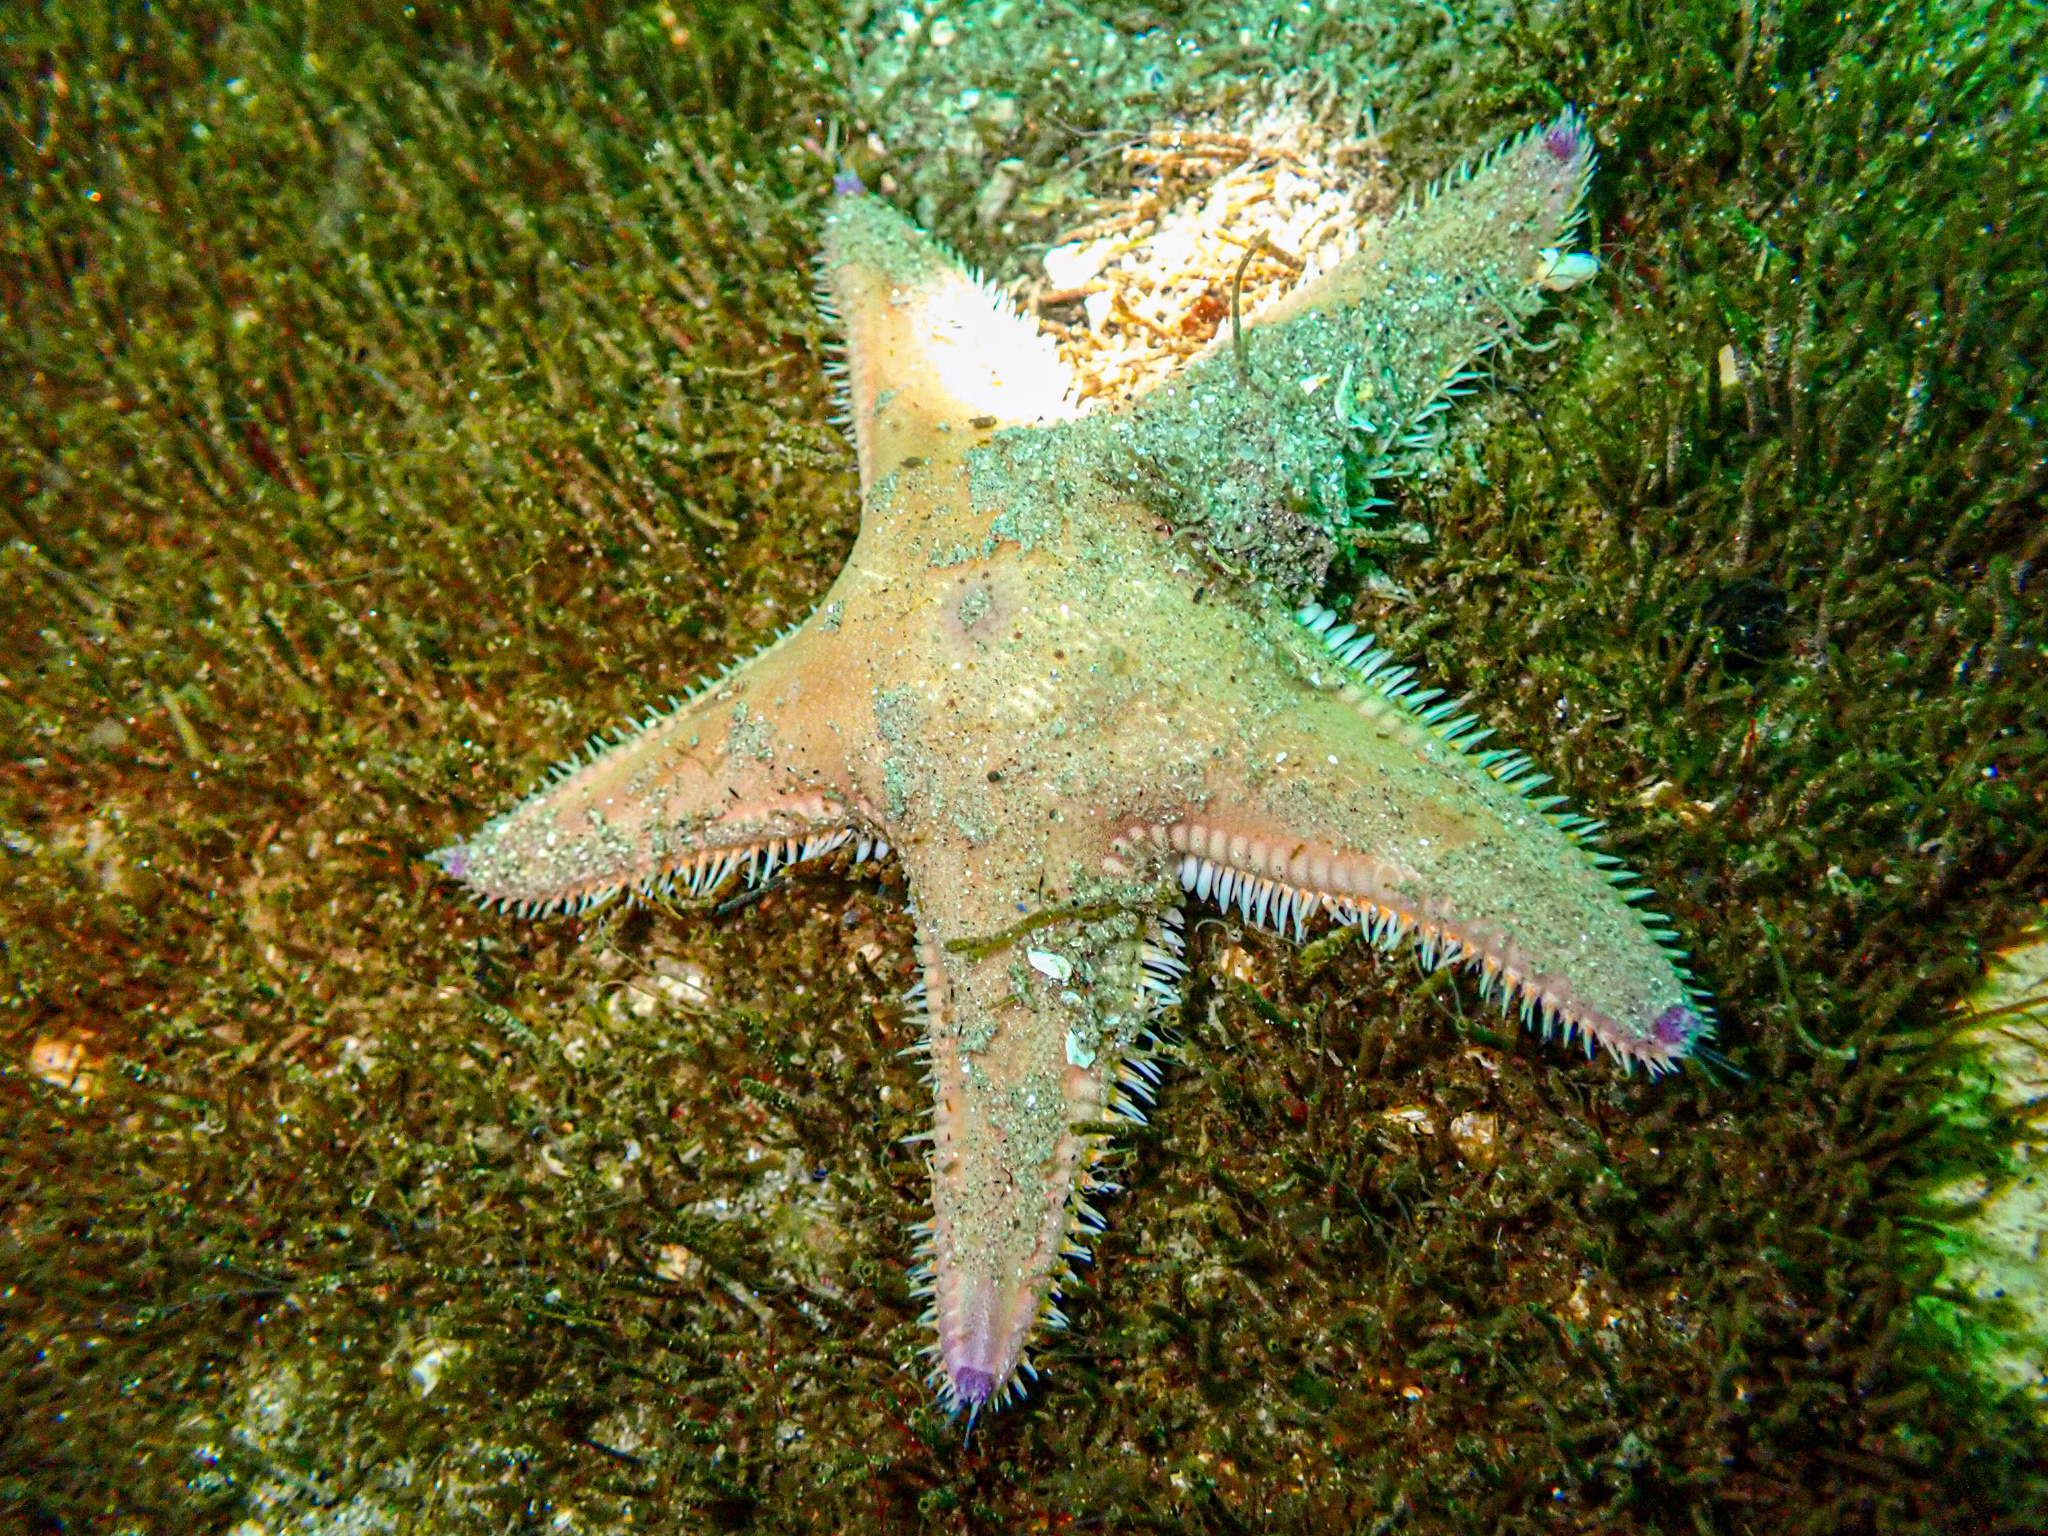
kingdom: Animalia
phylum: Echinodermata
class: Asteroidea
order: Paxillosida
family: Astropectinidae
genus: Astropecten
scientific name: Astropecten irregularis
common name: Sand star
